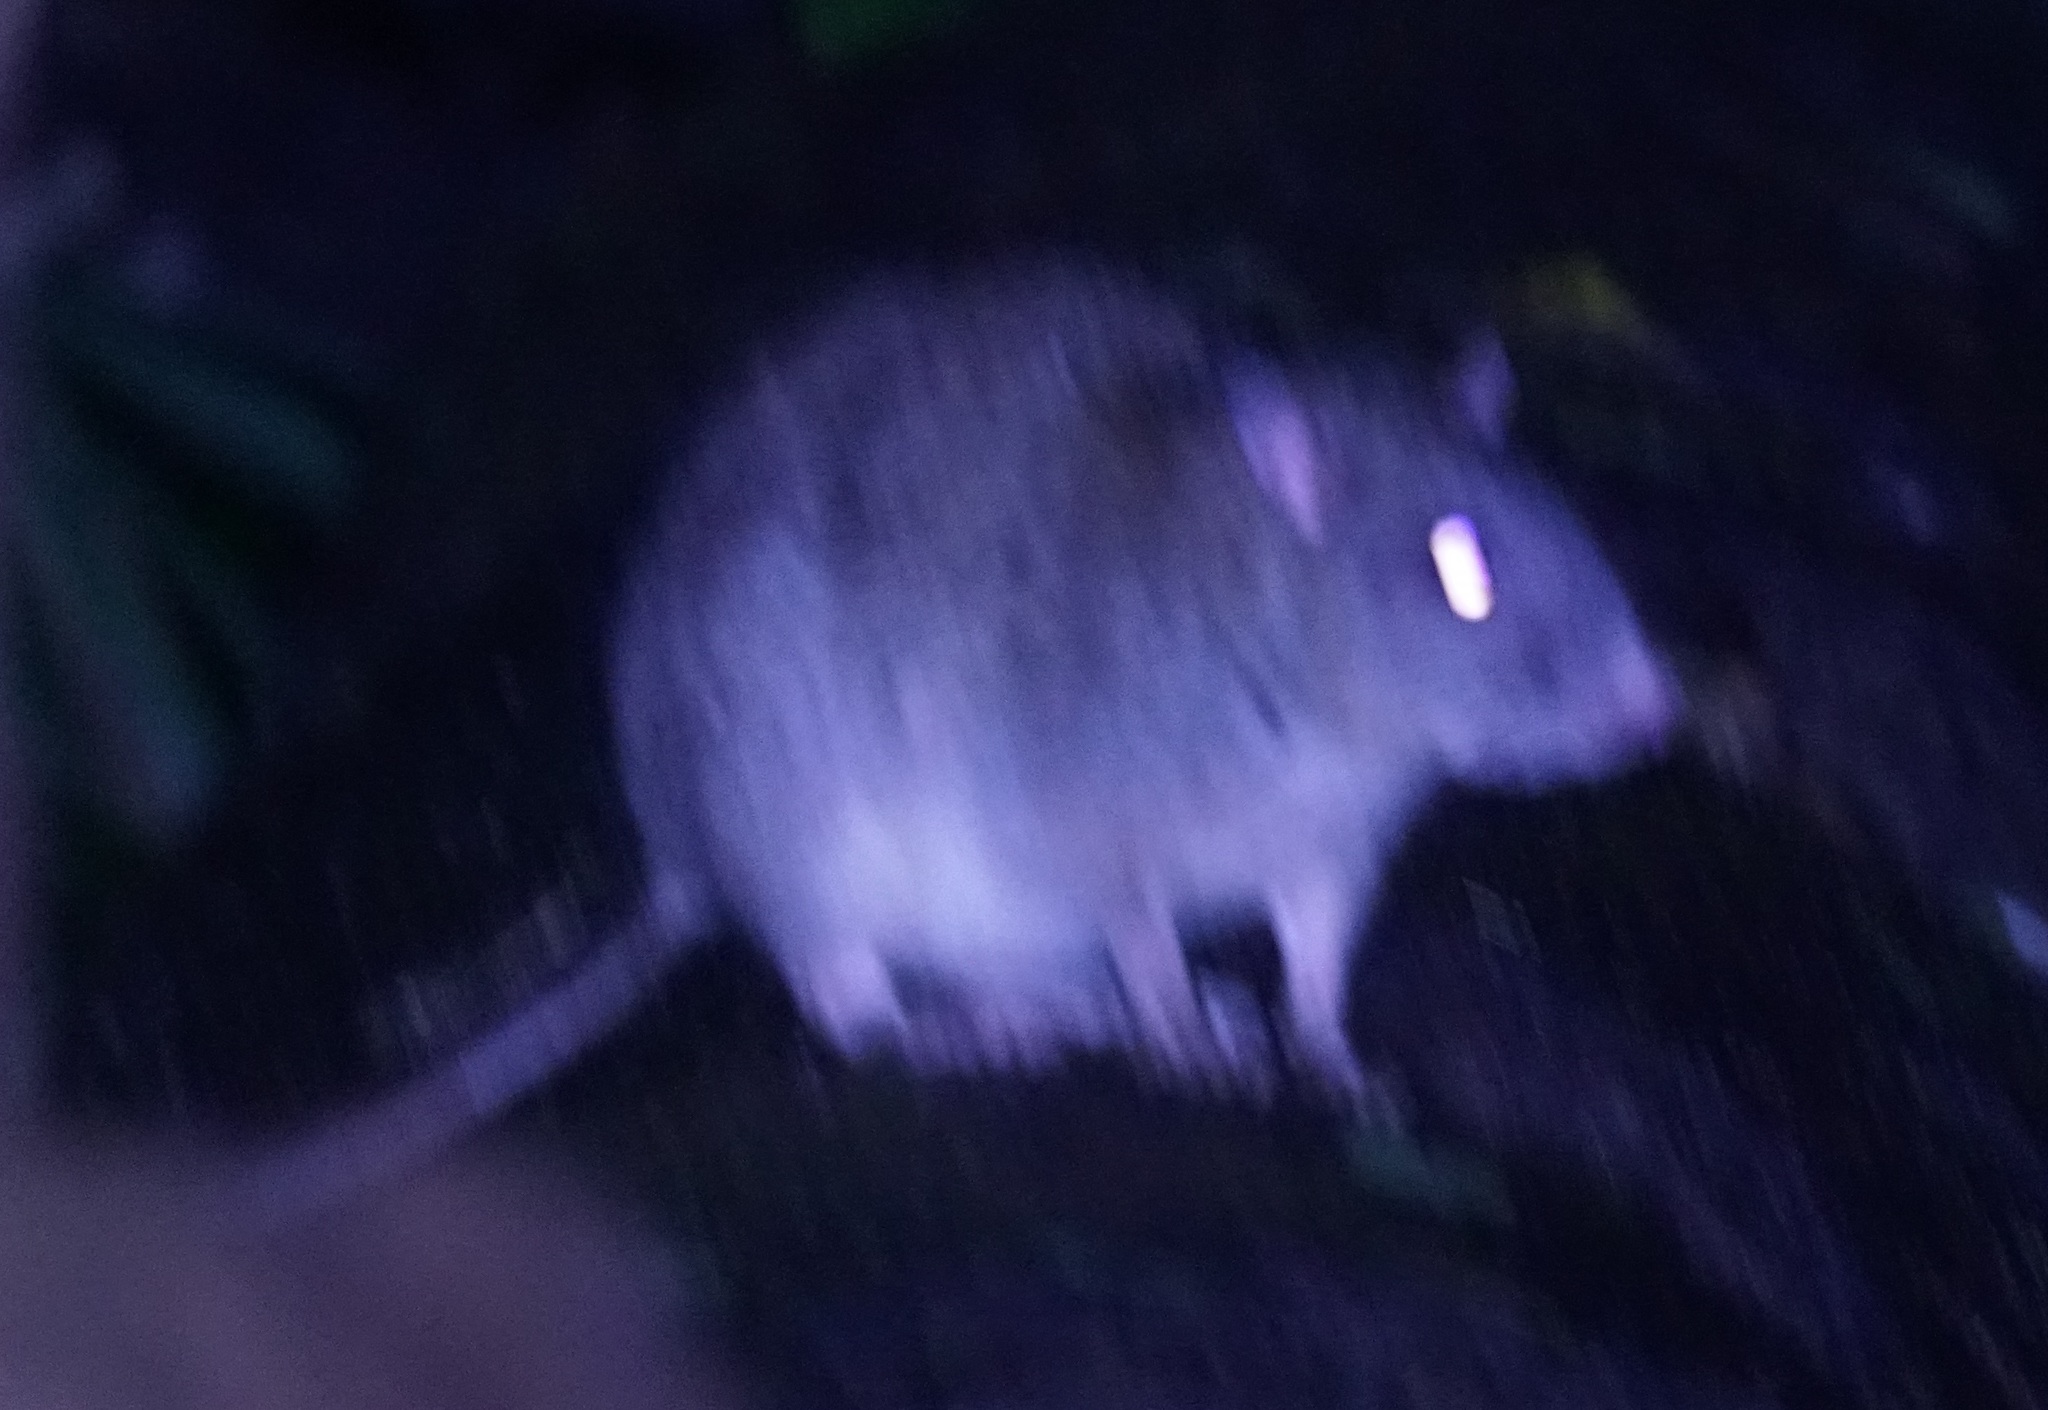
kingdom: Animalia
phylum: Chordata
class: Mammalia
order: Rodentia
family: Muridae
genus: Uromys
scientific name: Uromys caudimaculatus
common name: Giant white-tailed uromys
